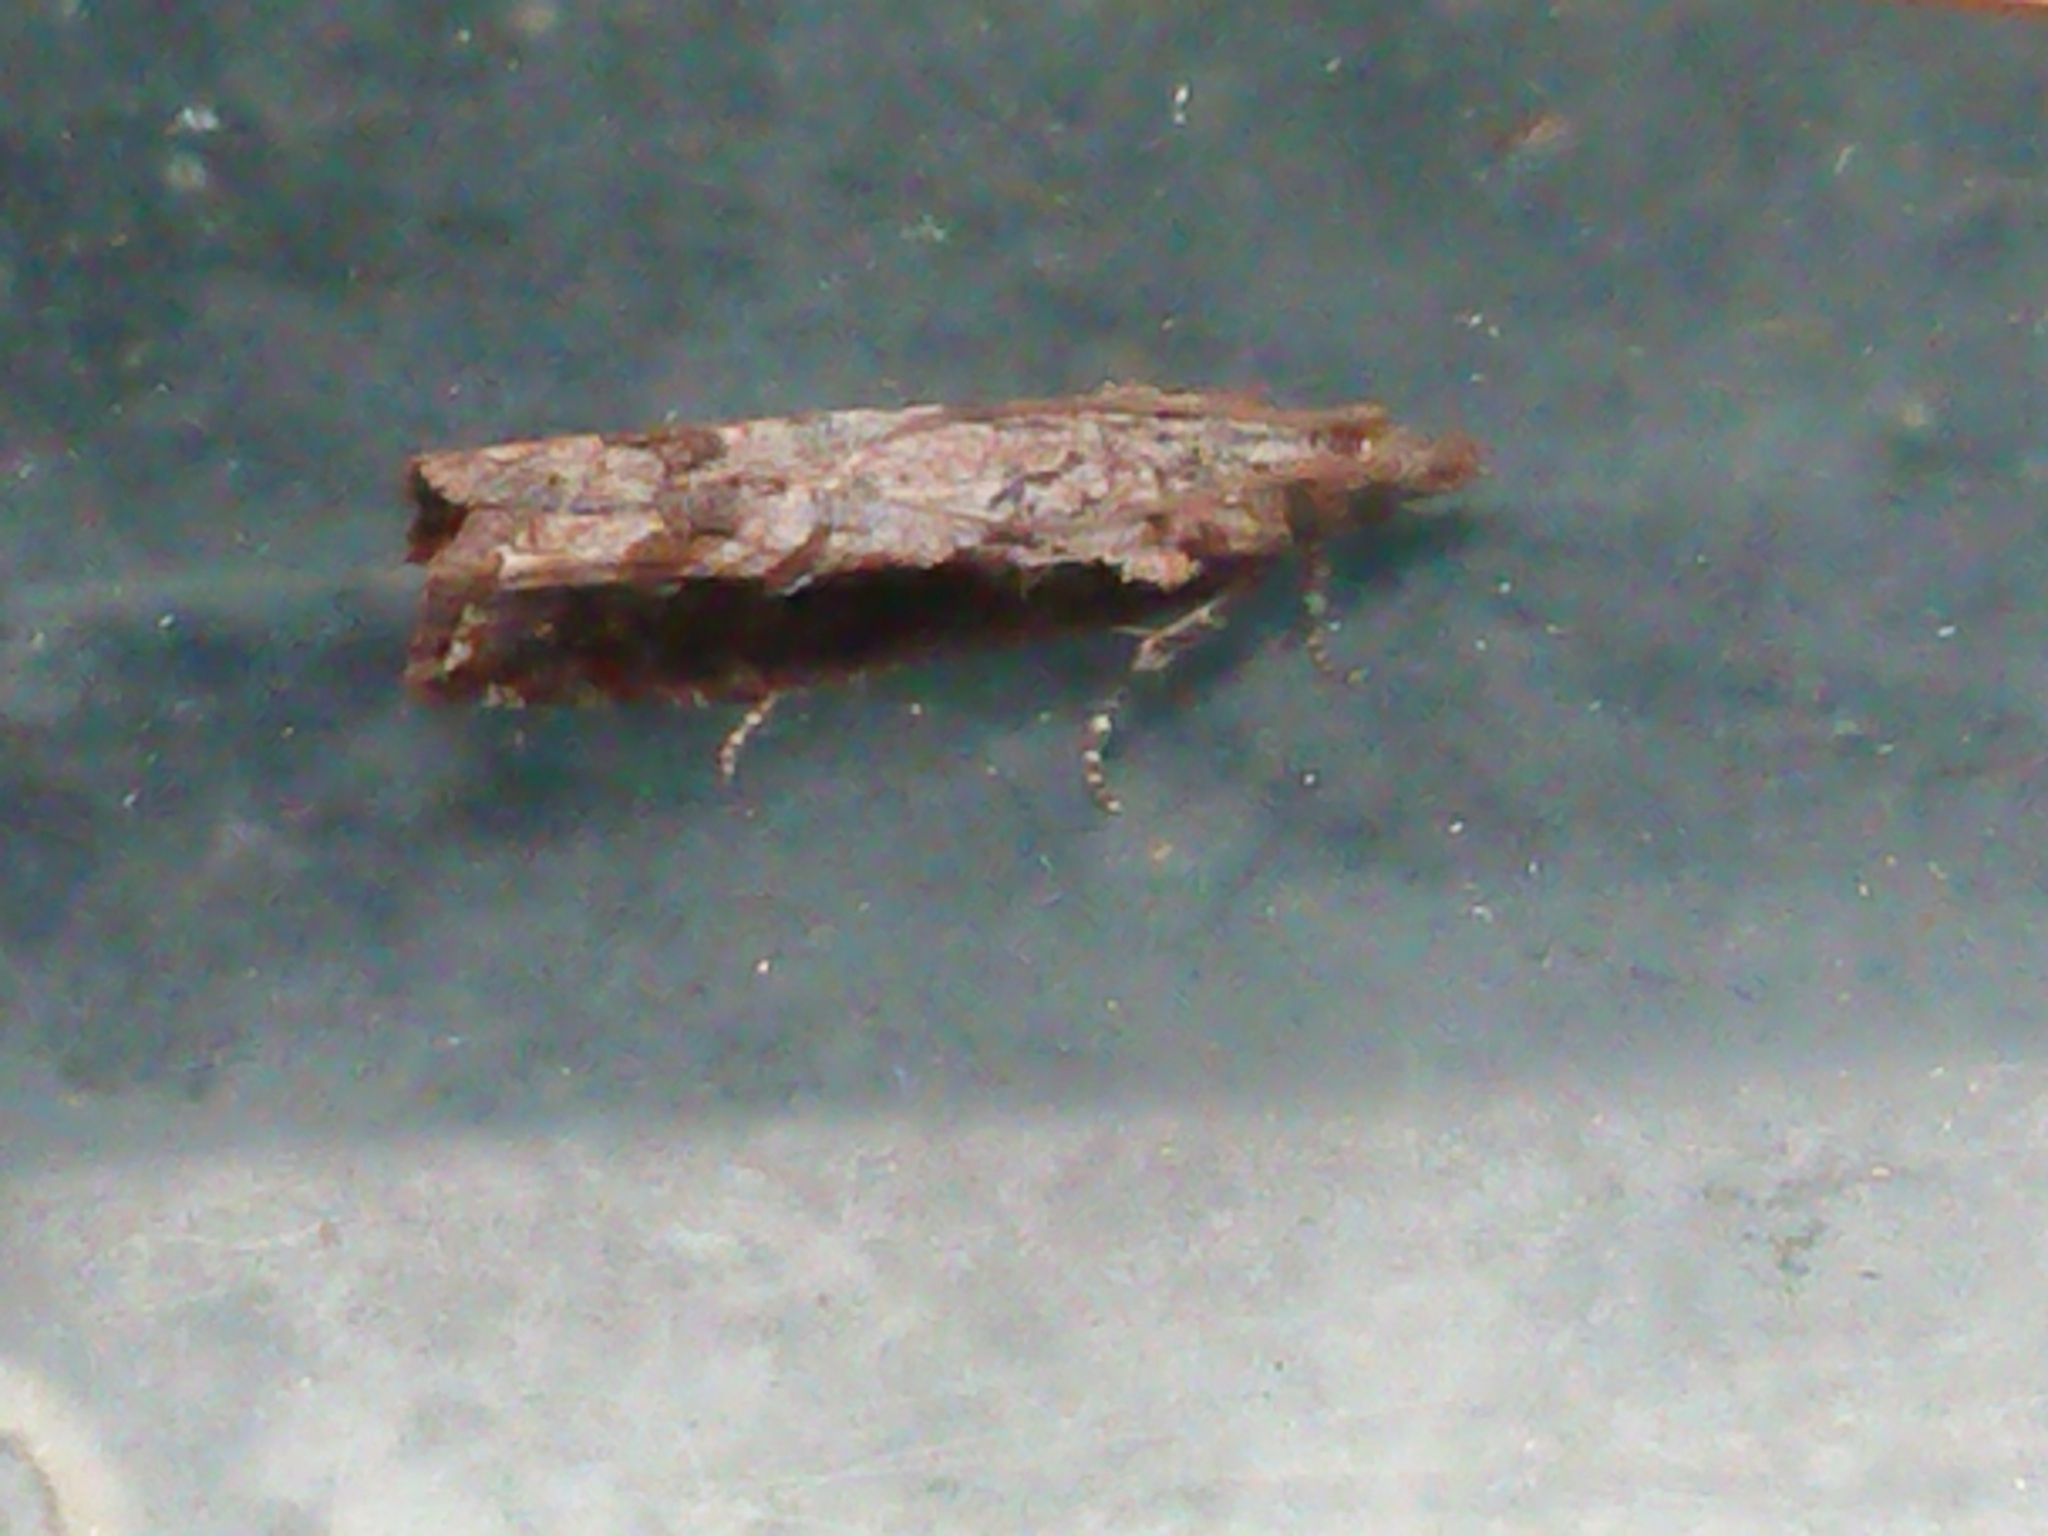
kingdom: Animalia
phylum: Arthropoda
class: Insecta
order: Lepidoptera
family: Tortricidae
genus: Strepsicrates
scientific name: Strepsicrates infensa
